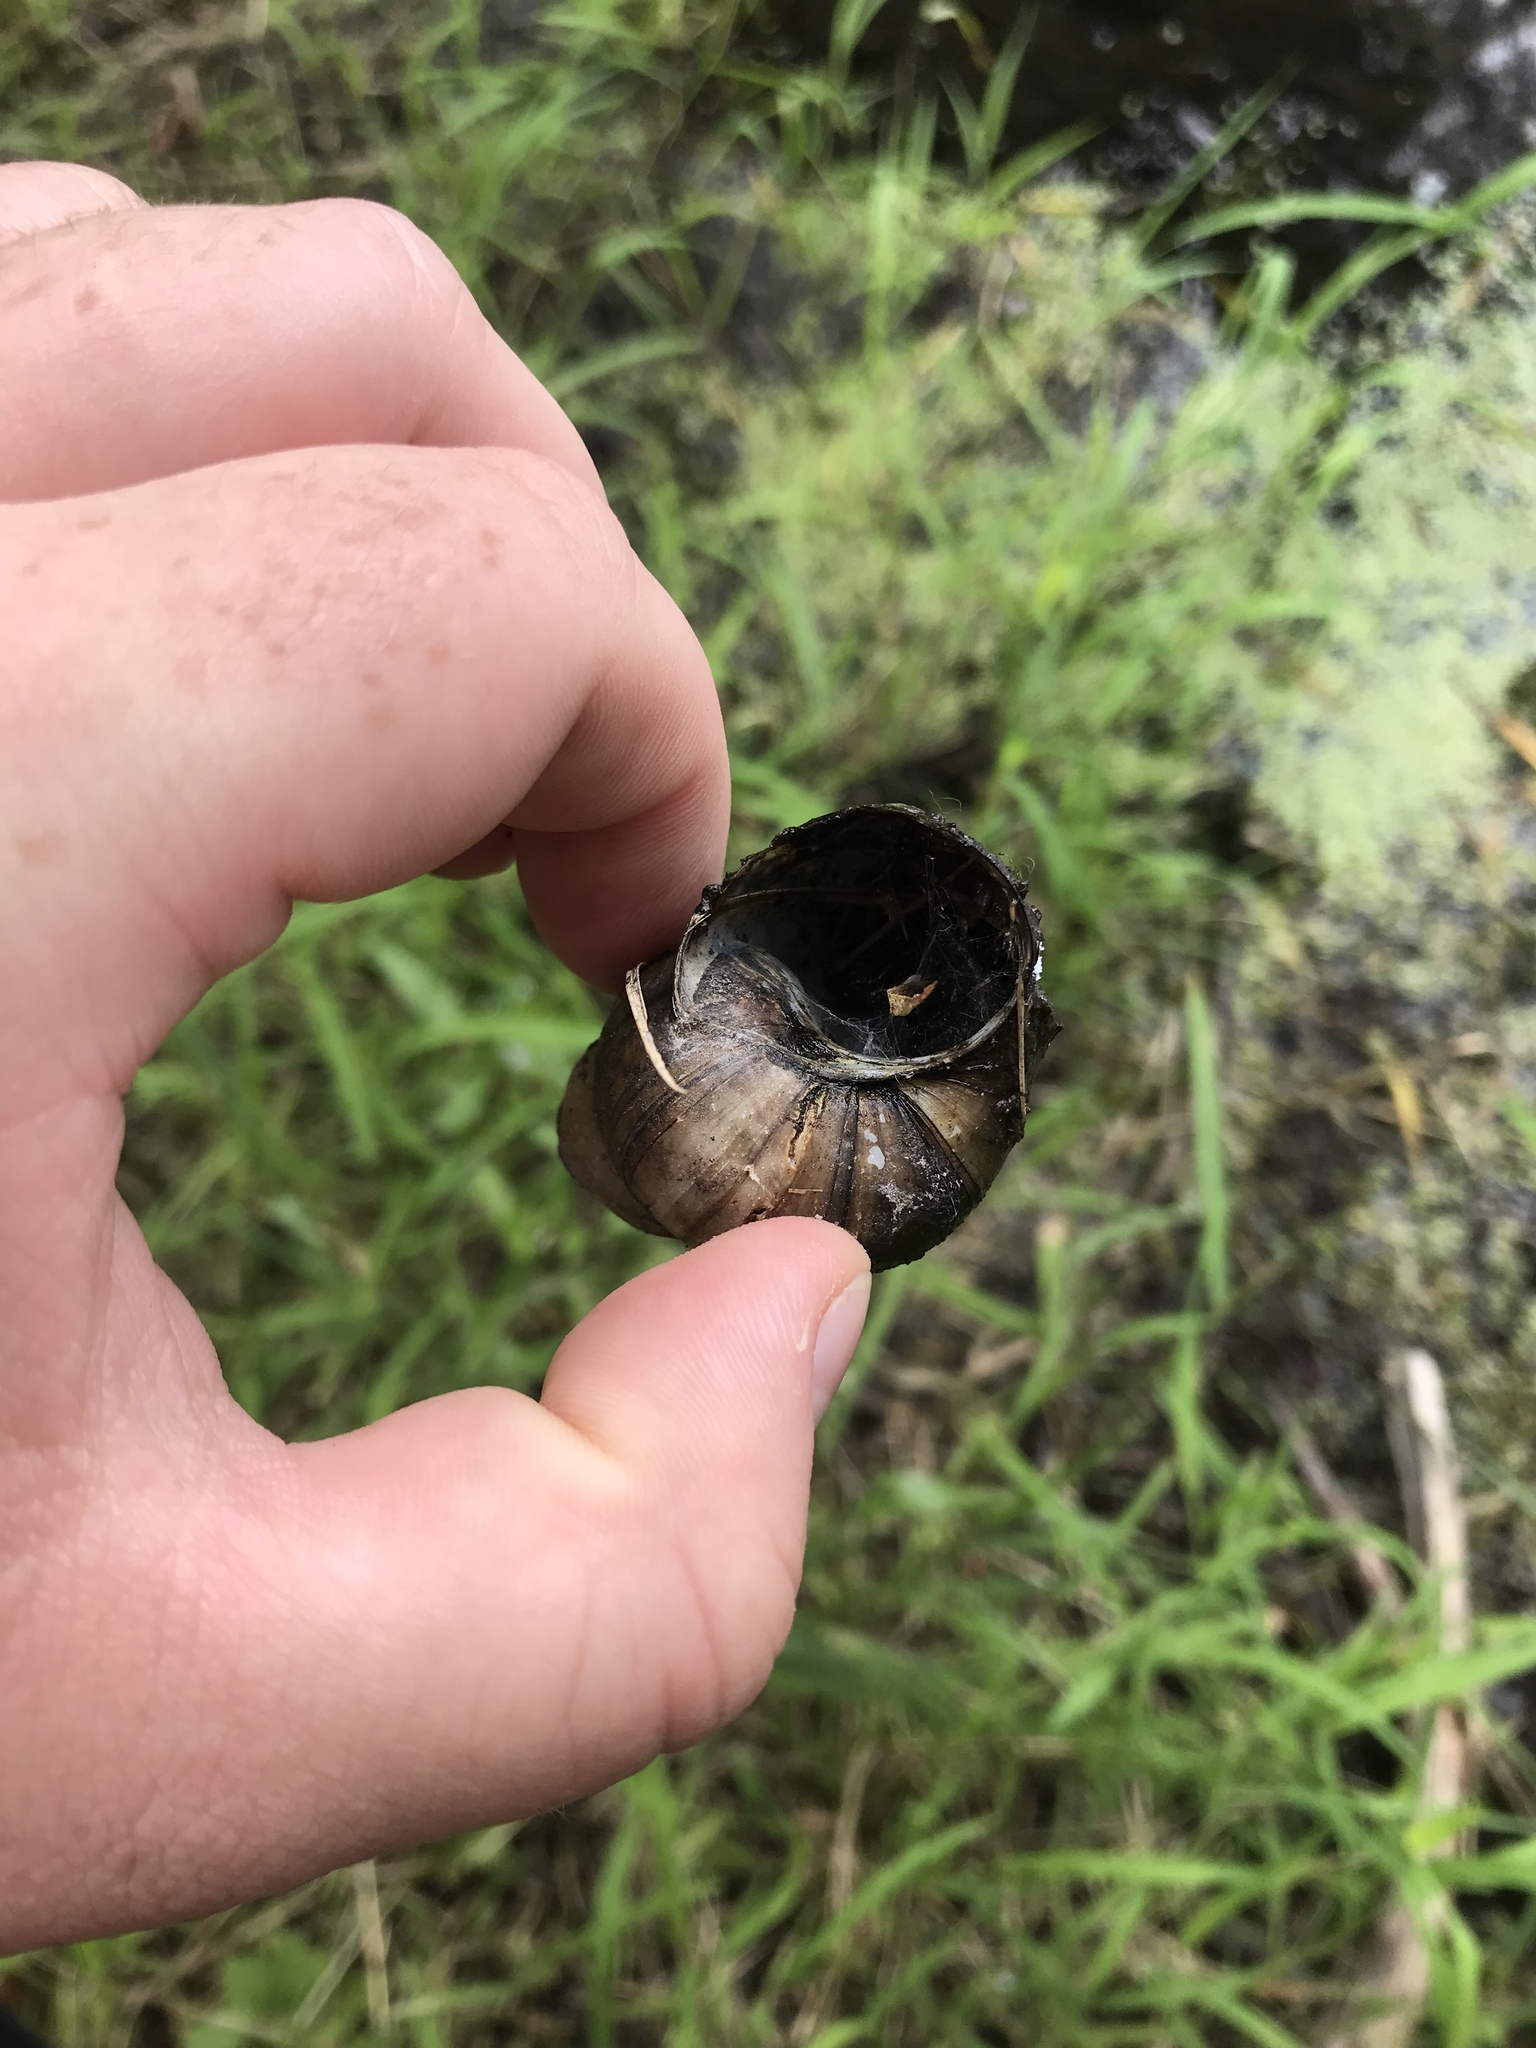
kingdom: Animalia
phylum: Mollusca
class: Gastropoda
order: Architaenioglossa
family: Viviparidae
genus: Cipangopaludina
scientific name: Cipangopaludina chinensis
